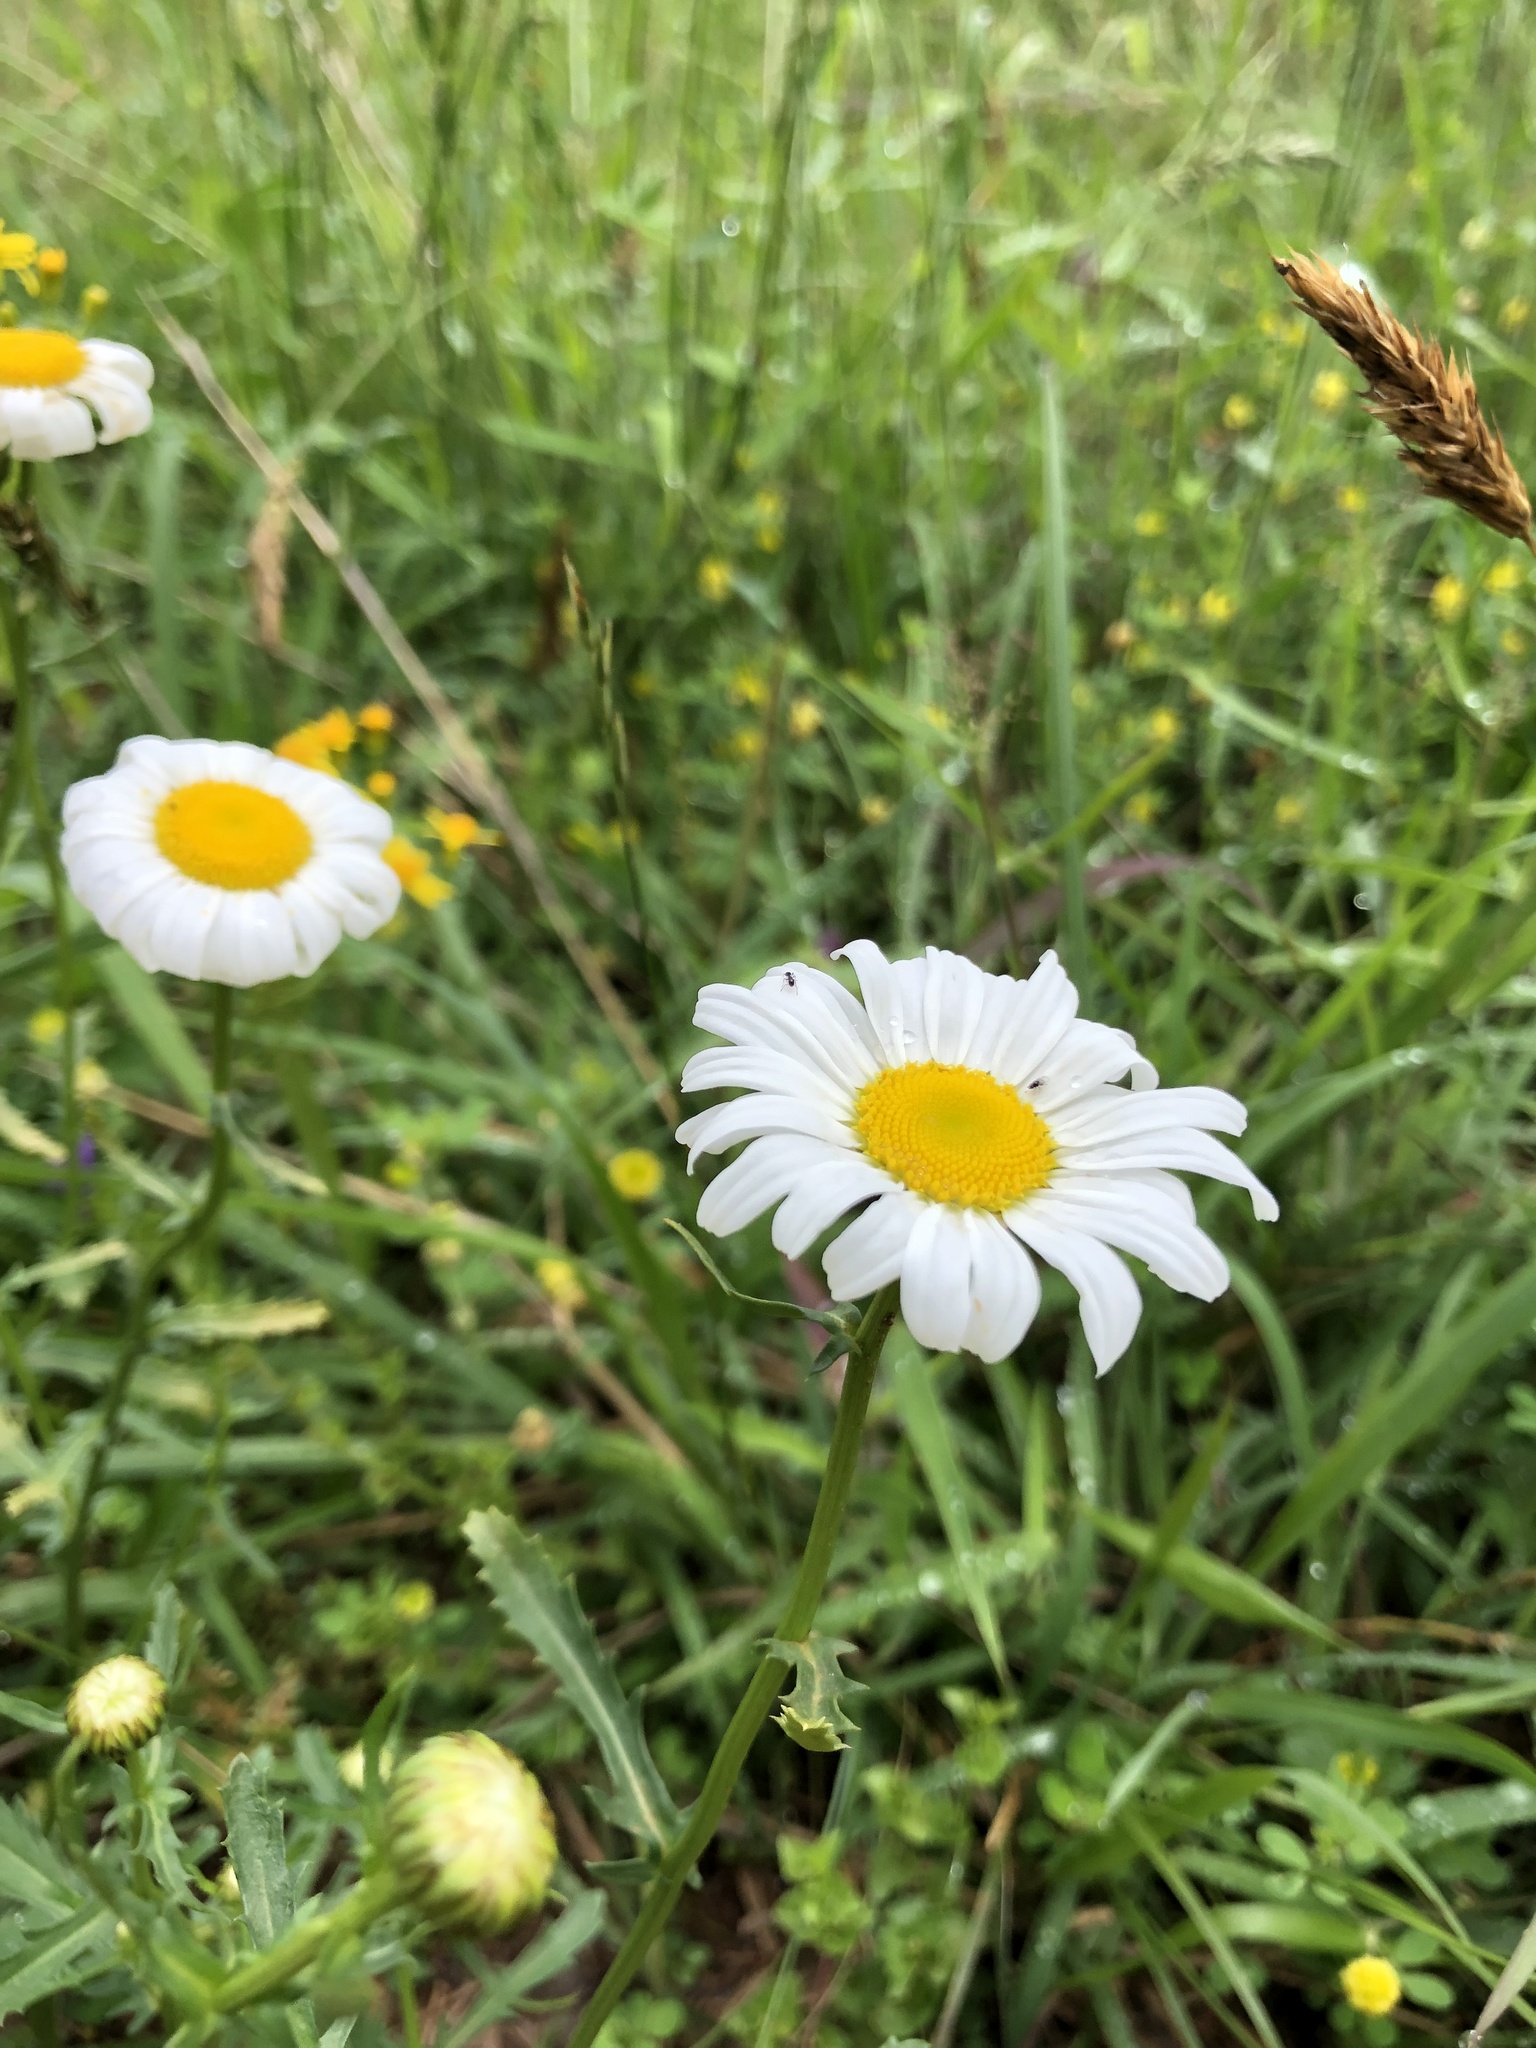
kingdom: Plantae
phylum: Tracheophyta
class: Magnoliopsida
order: Asterales
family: Asteraceae
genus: Leucanthemum
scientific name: Leucanthemum vulgare
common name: Oxeye daisy
